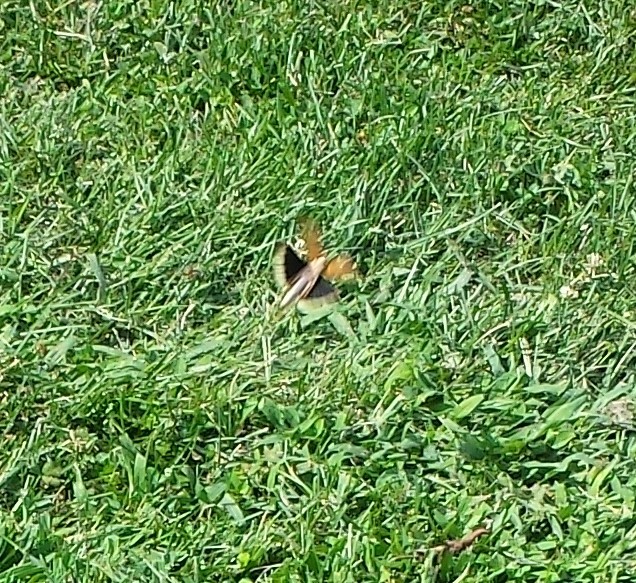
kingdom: Animalia
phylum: Arthropoda
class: Insecta
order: Orthoptera
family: Acrididae
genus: Dissosteira
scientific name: Dissosteira carolina
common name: Carolina grasshopper
